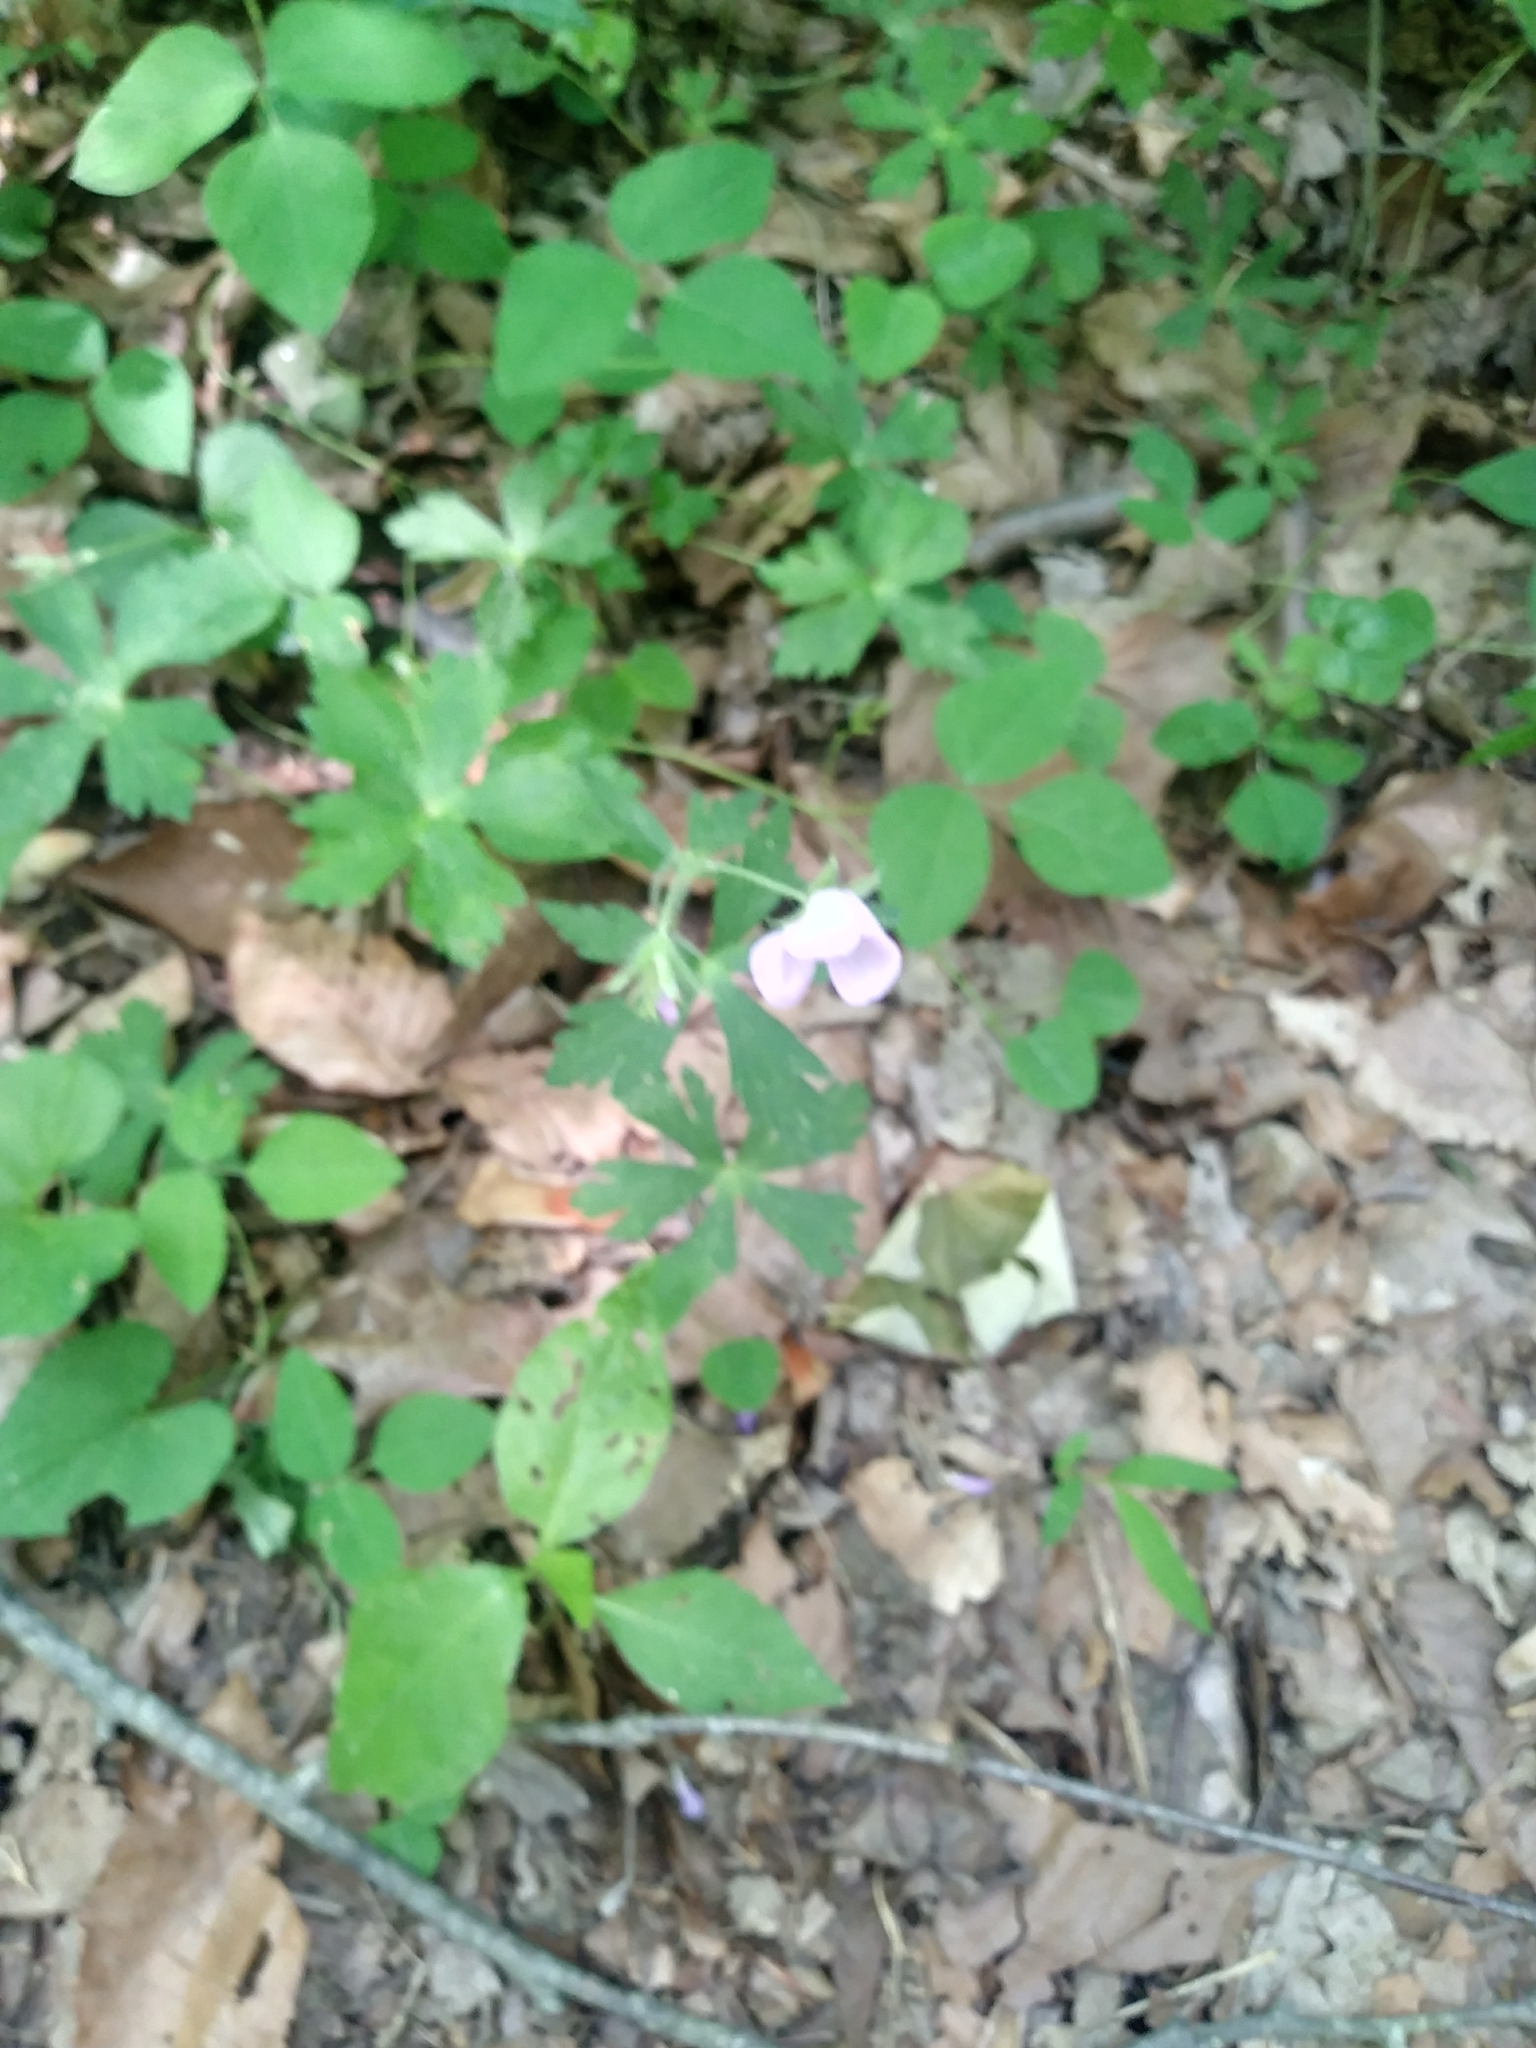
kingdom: Plantae
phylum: Tracheophyta
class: Magnoliopsida
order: Geraniales
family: Geraniaceae
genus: Geranium
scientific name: Geranium maculatum
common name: Spotted geranium
